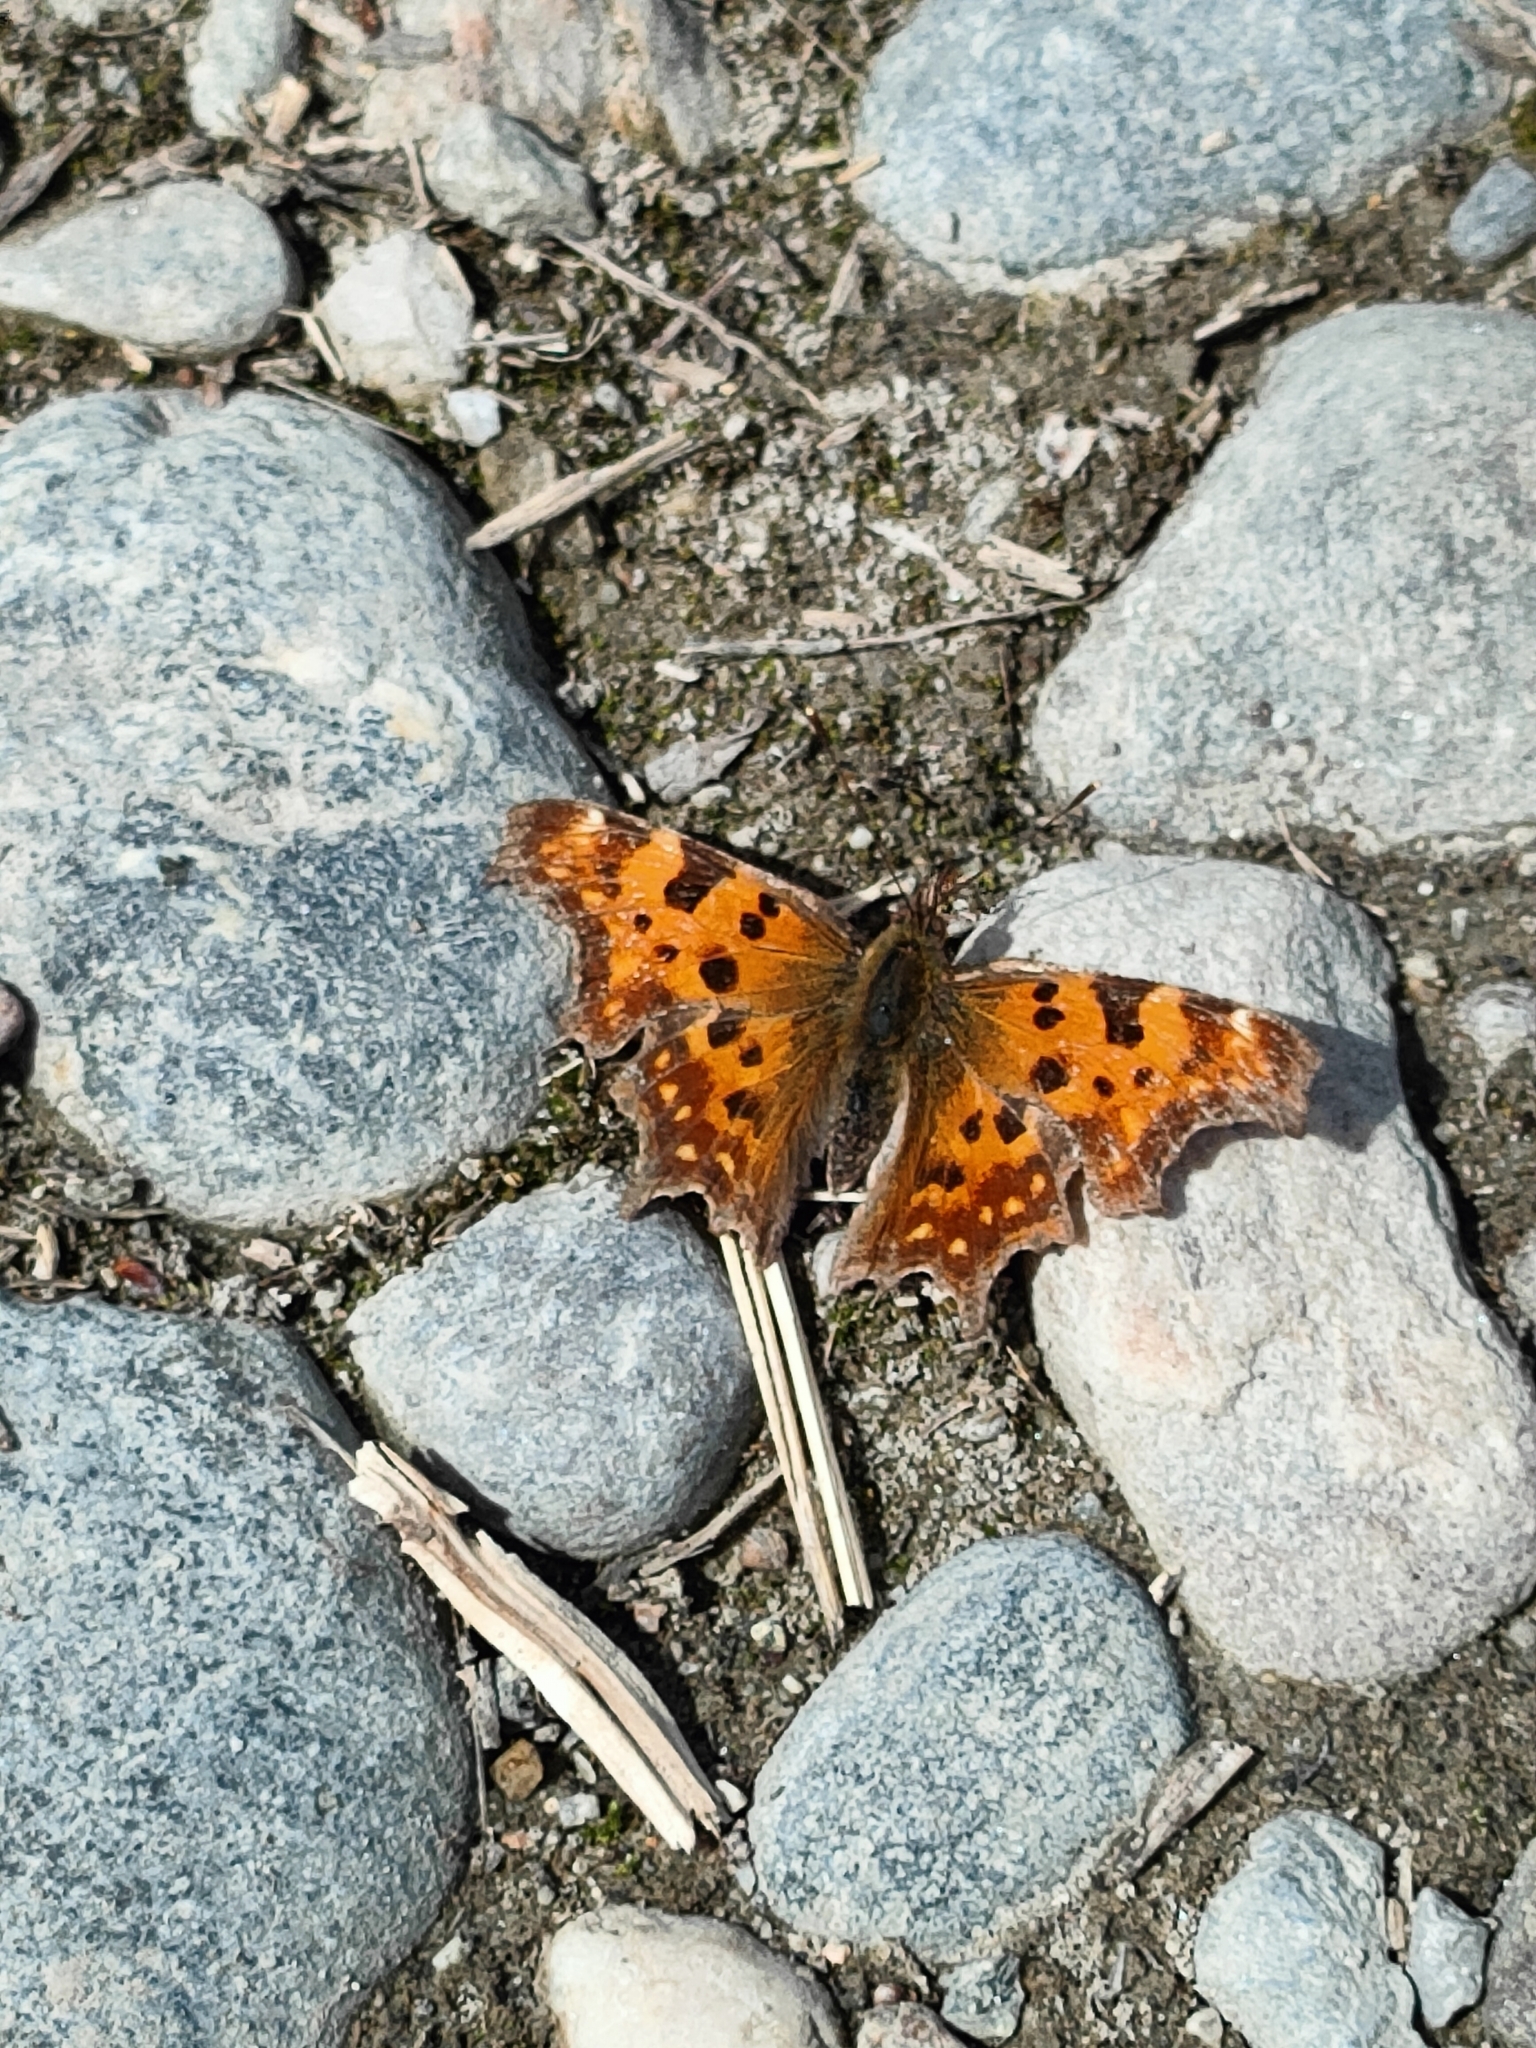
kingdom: Animalia
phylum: Arthropoda
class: Insecta
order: Lepidoptera
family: Nymphalidae
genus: Polygonia
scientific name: Polygonia c-album
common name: Comma
